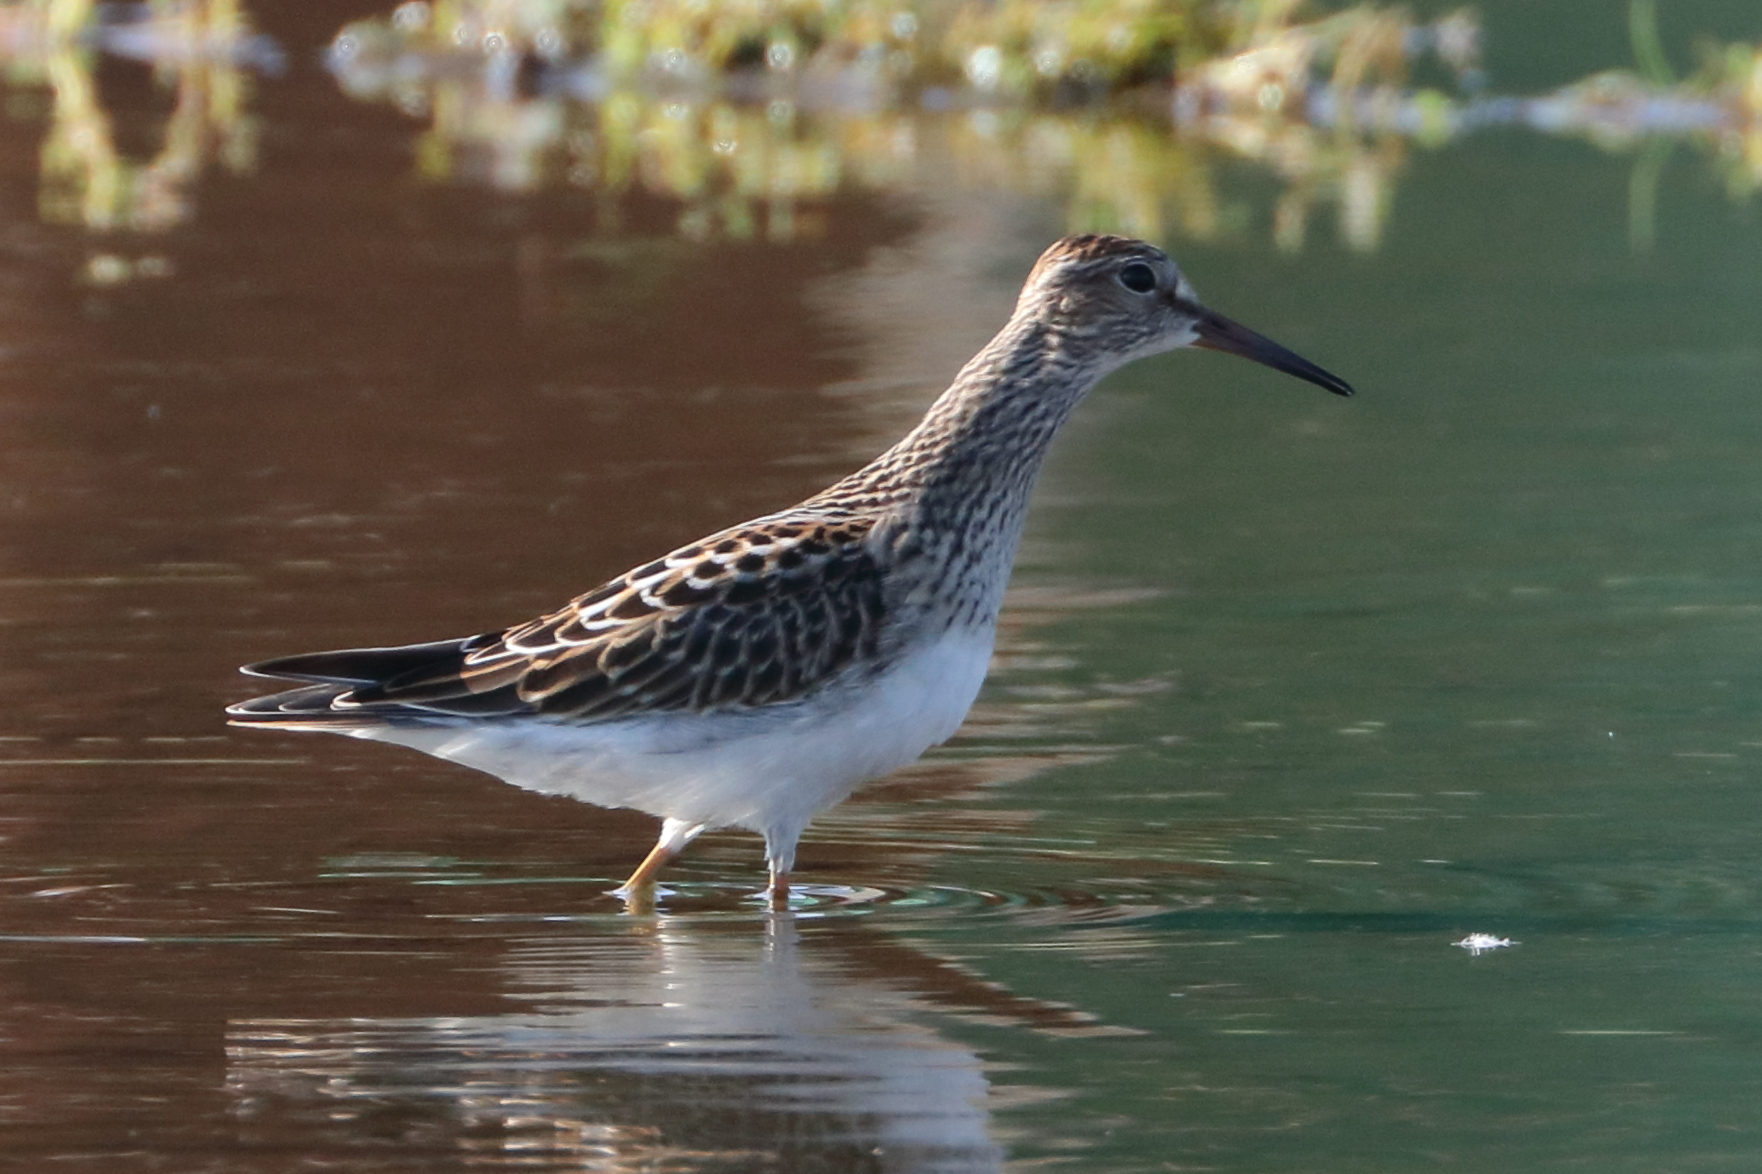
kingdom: Animalia
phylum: Chordata
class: Aves
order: Charadriiformes
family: Scolopacidae
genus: Calidris
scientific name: Calidris melanotos
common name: Pectoral sandpiper
